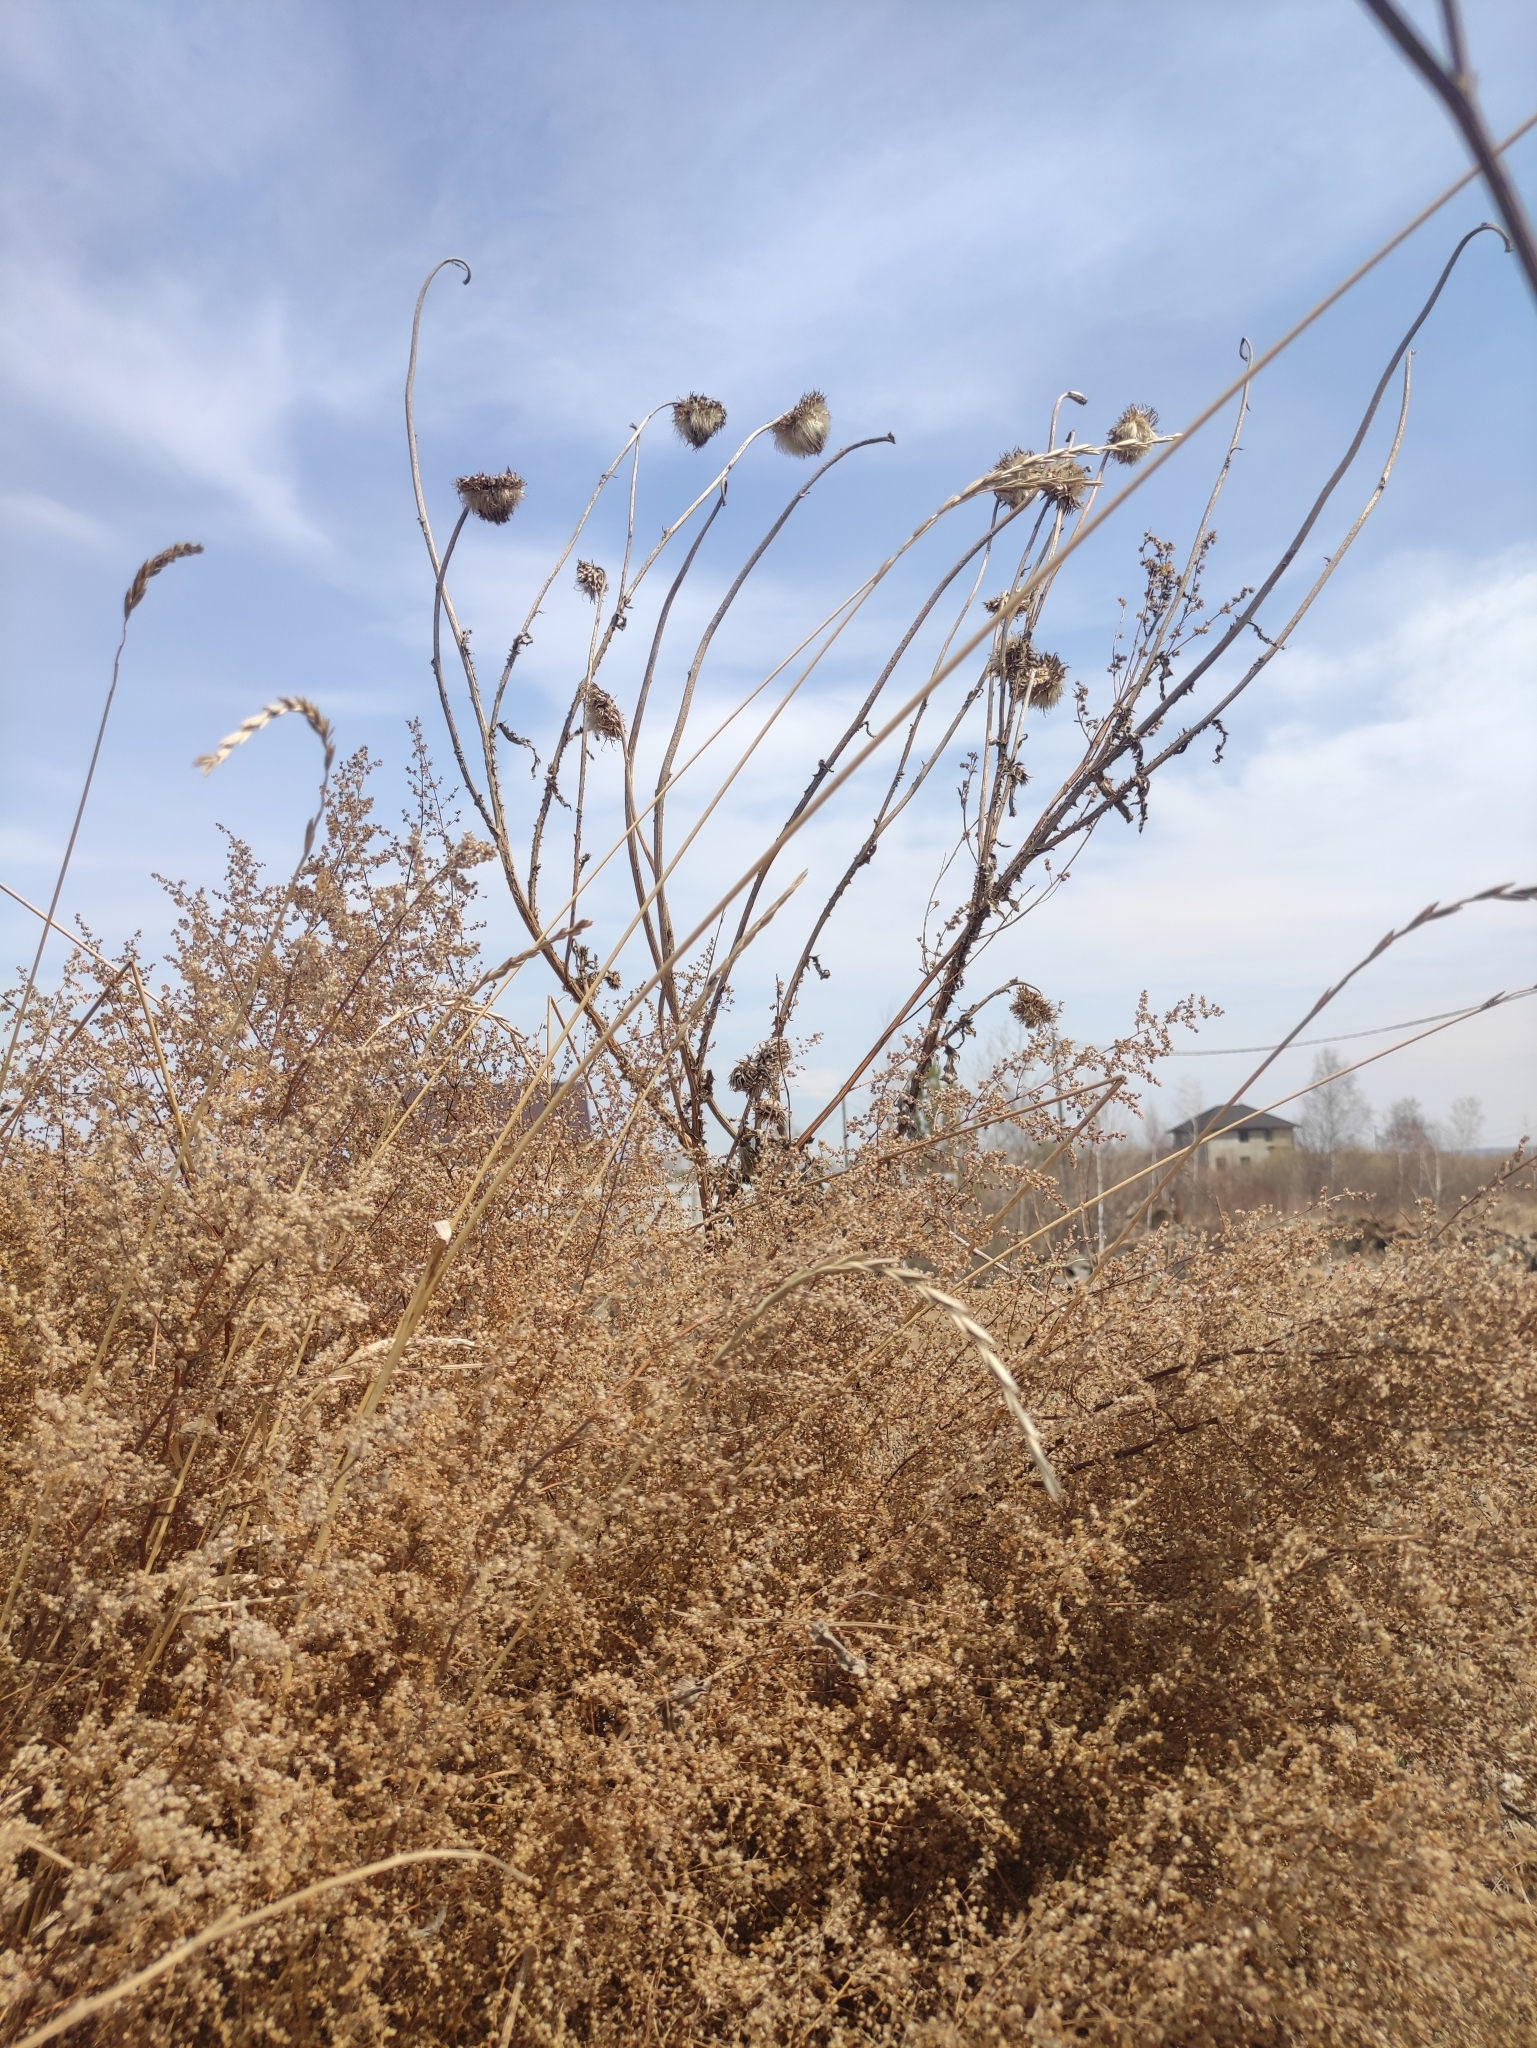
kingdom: Plantae
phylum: Tracheophyta
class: Magnoliopsida
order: Asterales
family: Asteraceae
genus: Carduus
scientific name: Carduus nutans
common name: Musk thistle
